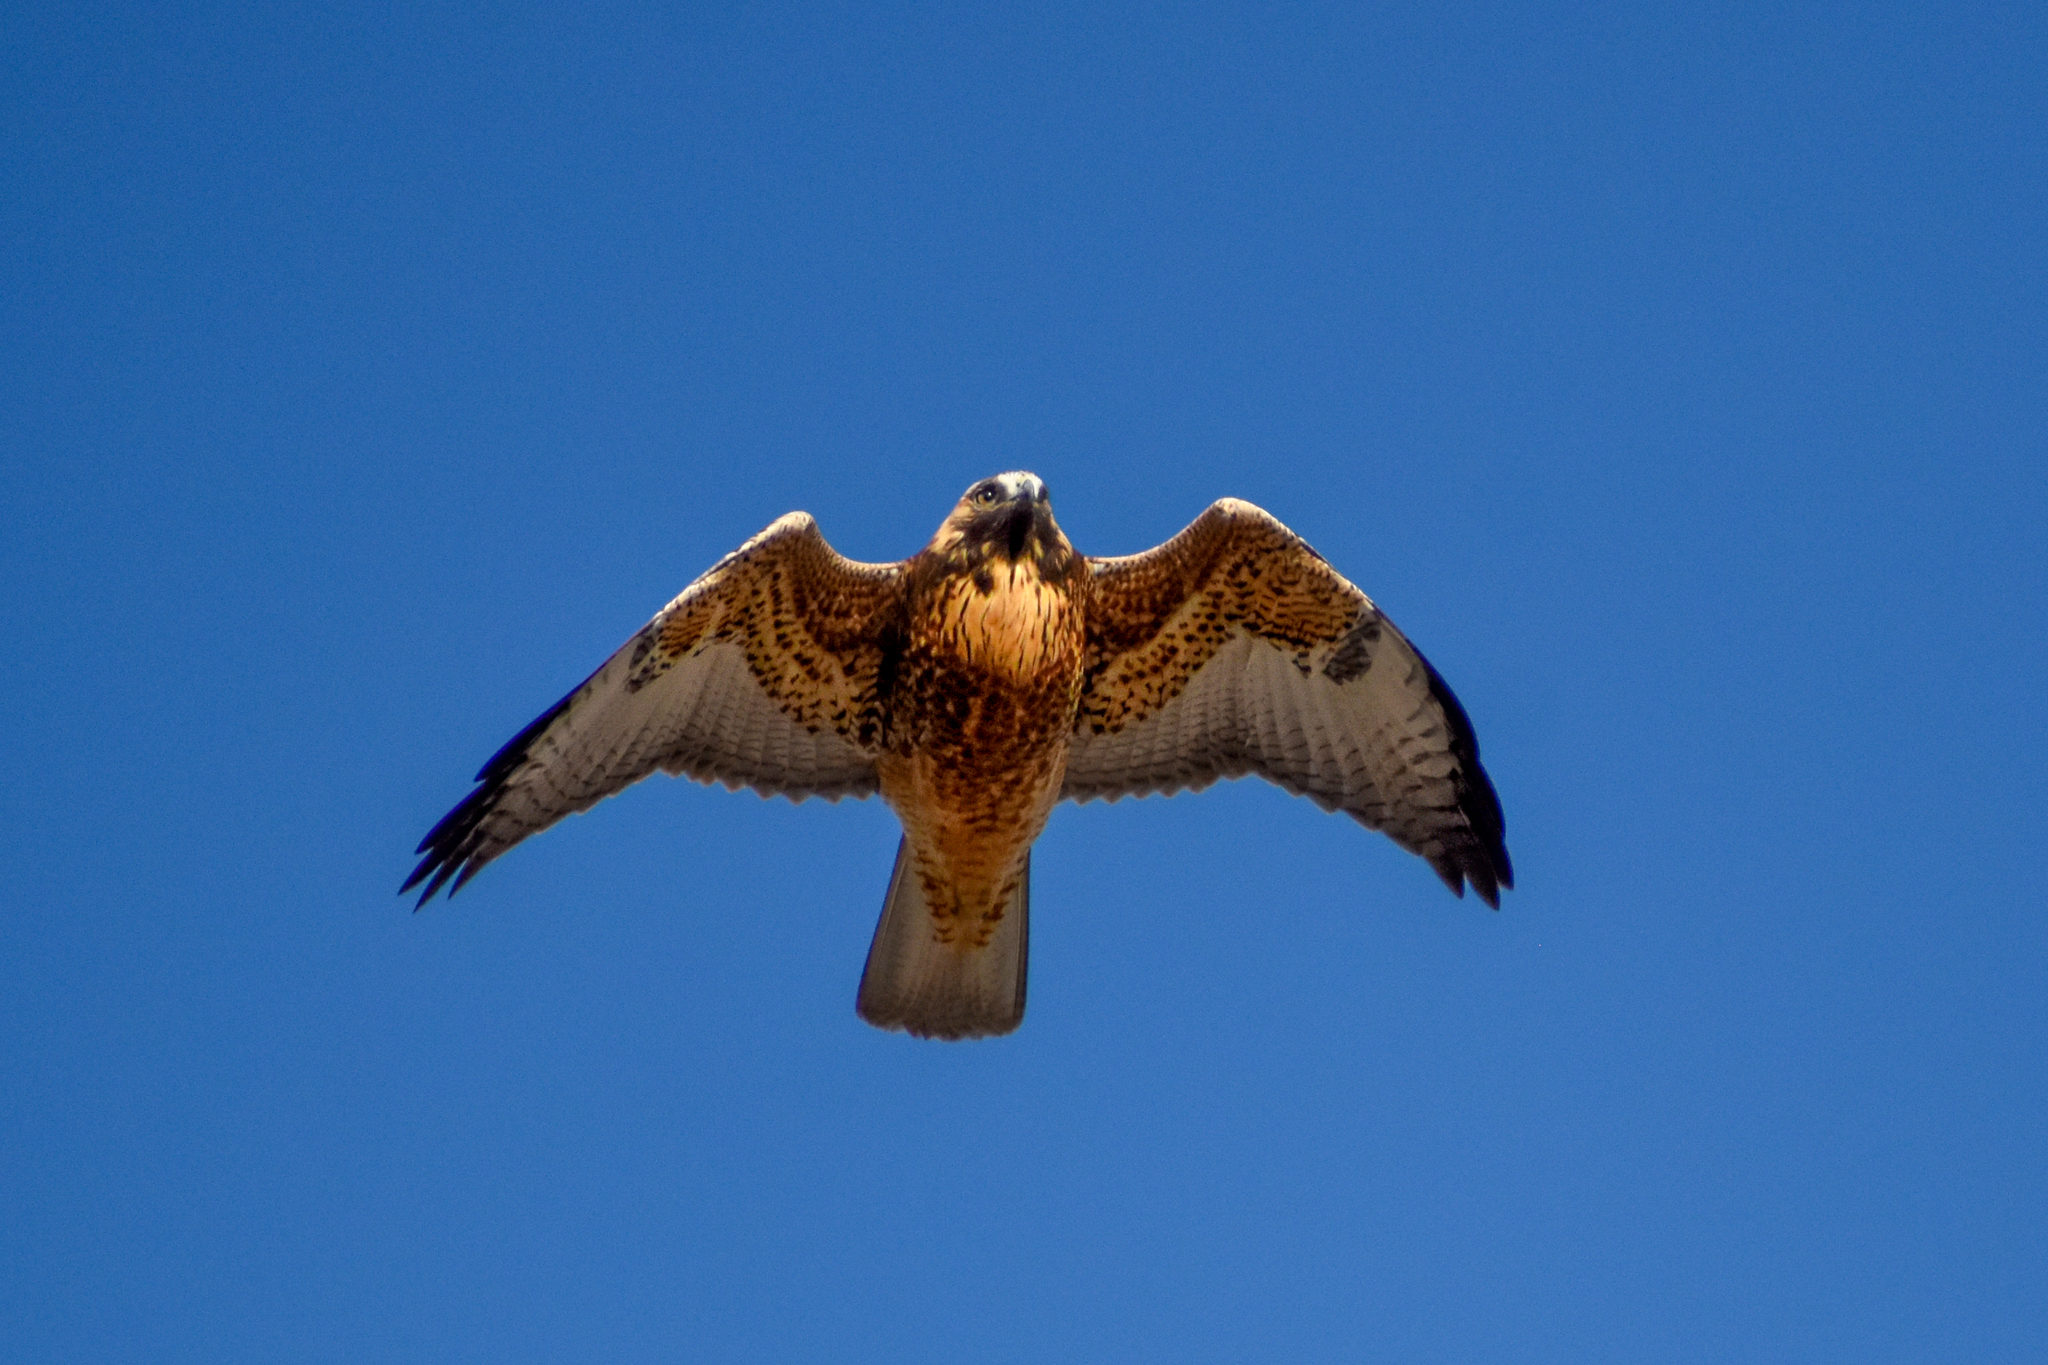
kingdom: Animalia
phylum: Chordata
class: Aves
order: Accipitriformes
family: Accipitridae
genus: Buteo
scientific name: Buteo polyosoma
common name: Variable hawk
